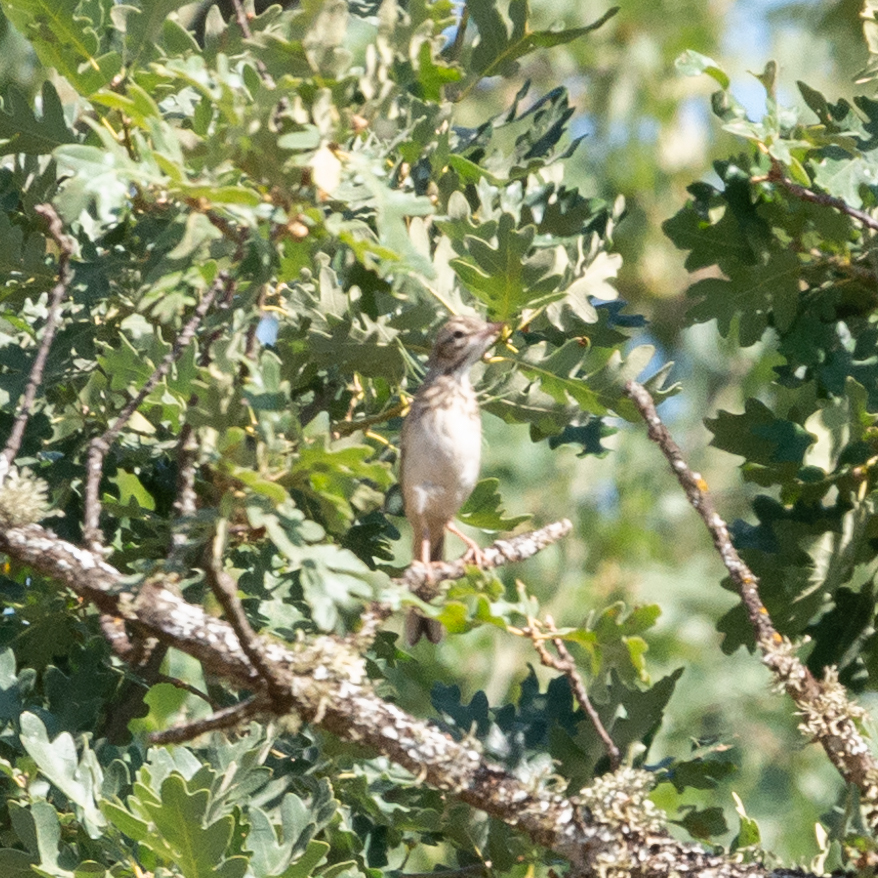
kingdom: Animalia
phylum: Chordata
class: Aves
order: Passeriformes
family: Motacillidae
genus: Anthus
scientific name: Anthus campestris
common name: Tawny pipit
